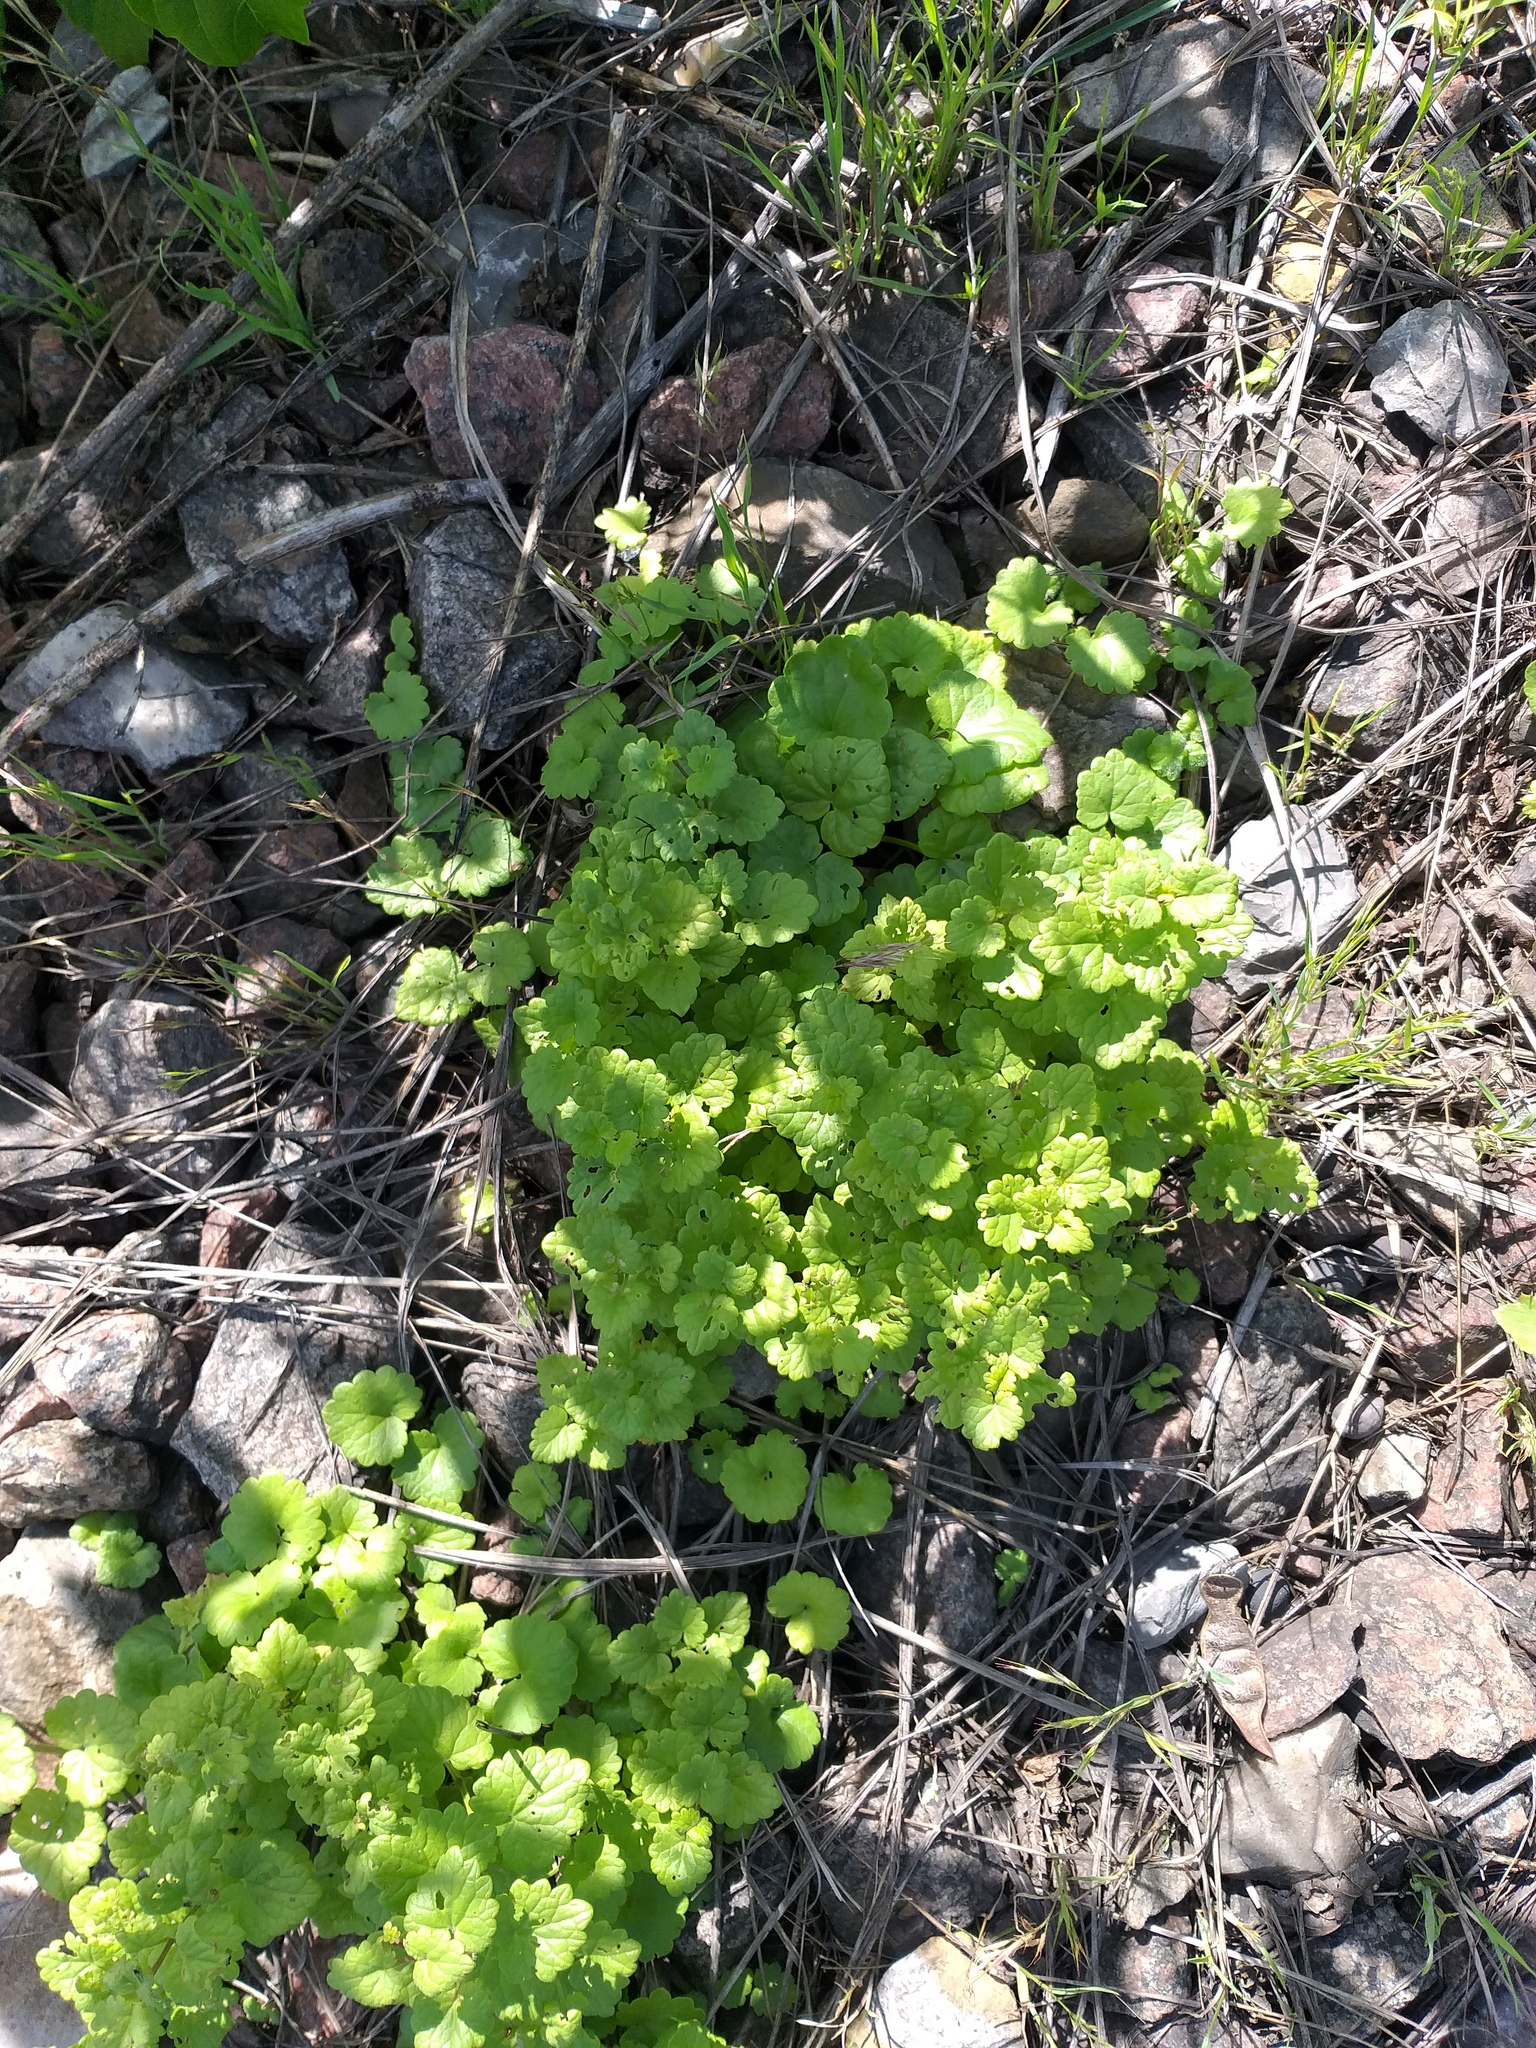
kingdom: Plantae
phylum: Tracheophyta
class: Magnoliopsida
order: Lamiales
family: Lamiaceae
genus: Glechoma
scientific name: Glechoma hederacea
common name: Ground ivy
